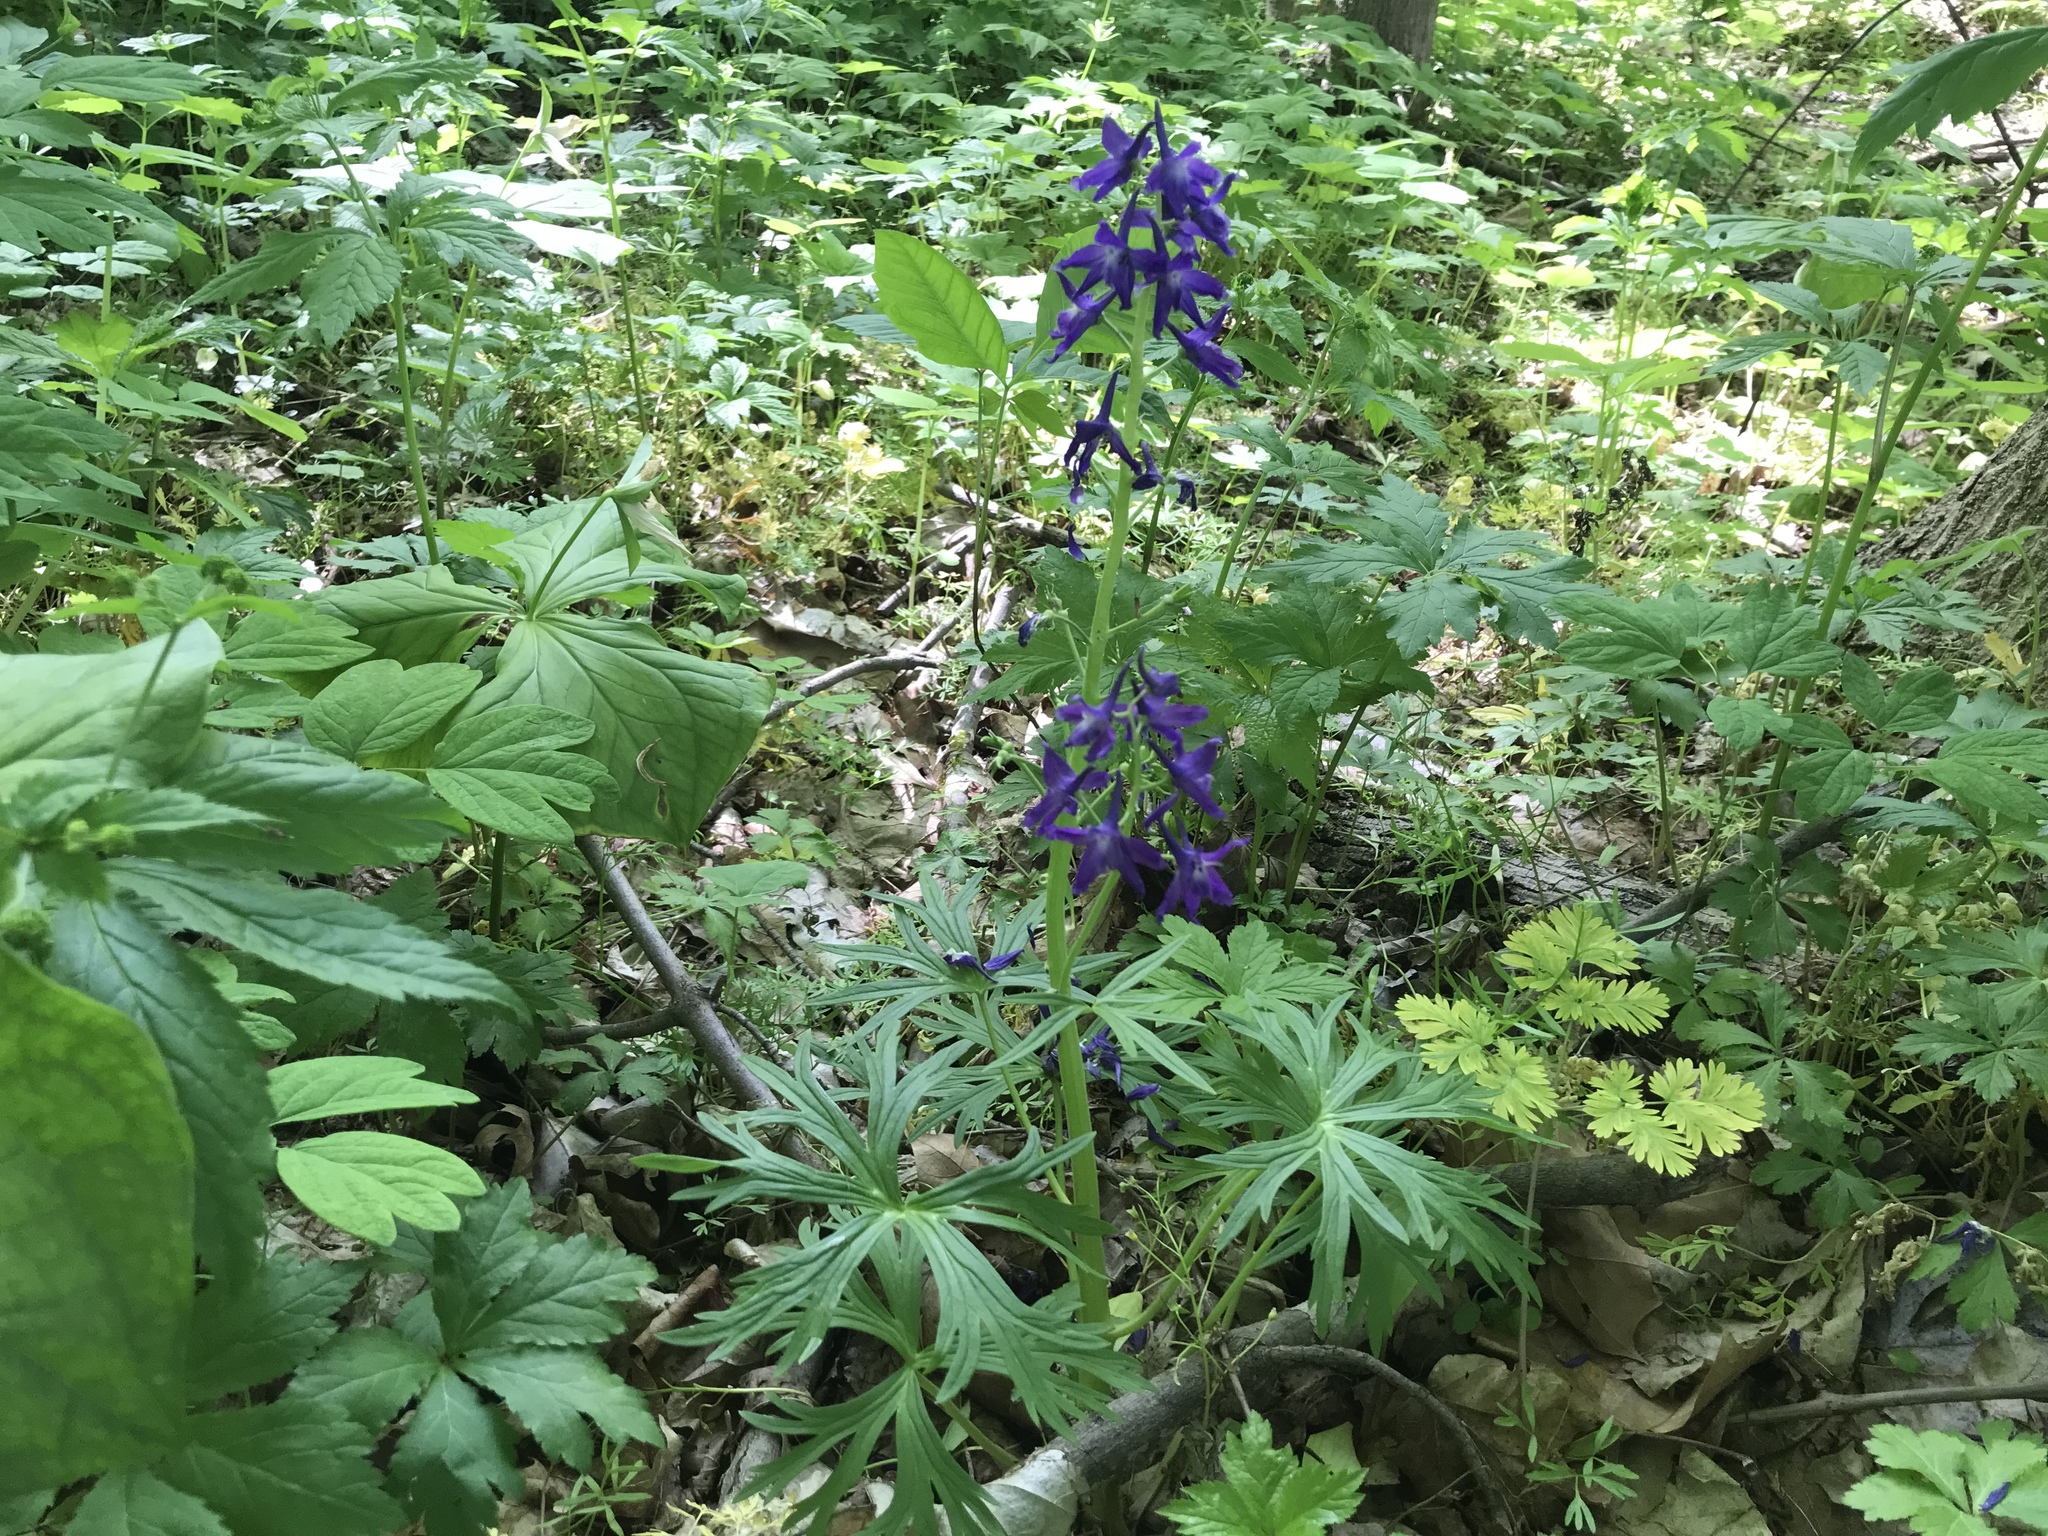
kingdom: Plantae
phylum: Tracheophyta
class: Magnoliopsida
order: Ranunculales
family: Ranunculaceae
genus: Delphinium
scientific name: Delphinium tricorne
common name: Dwarf larkspur
